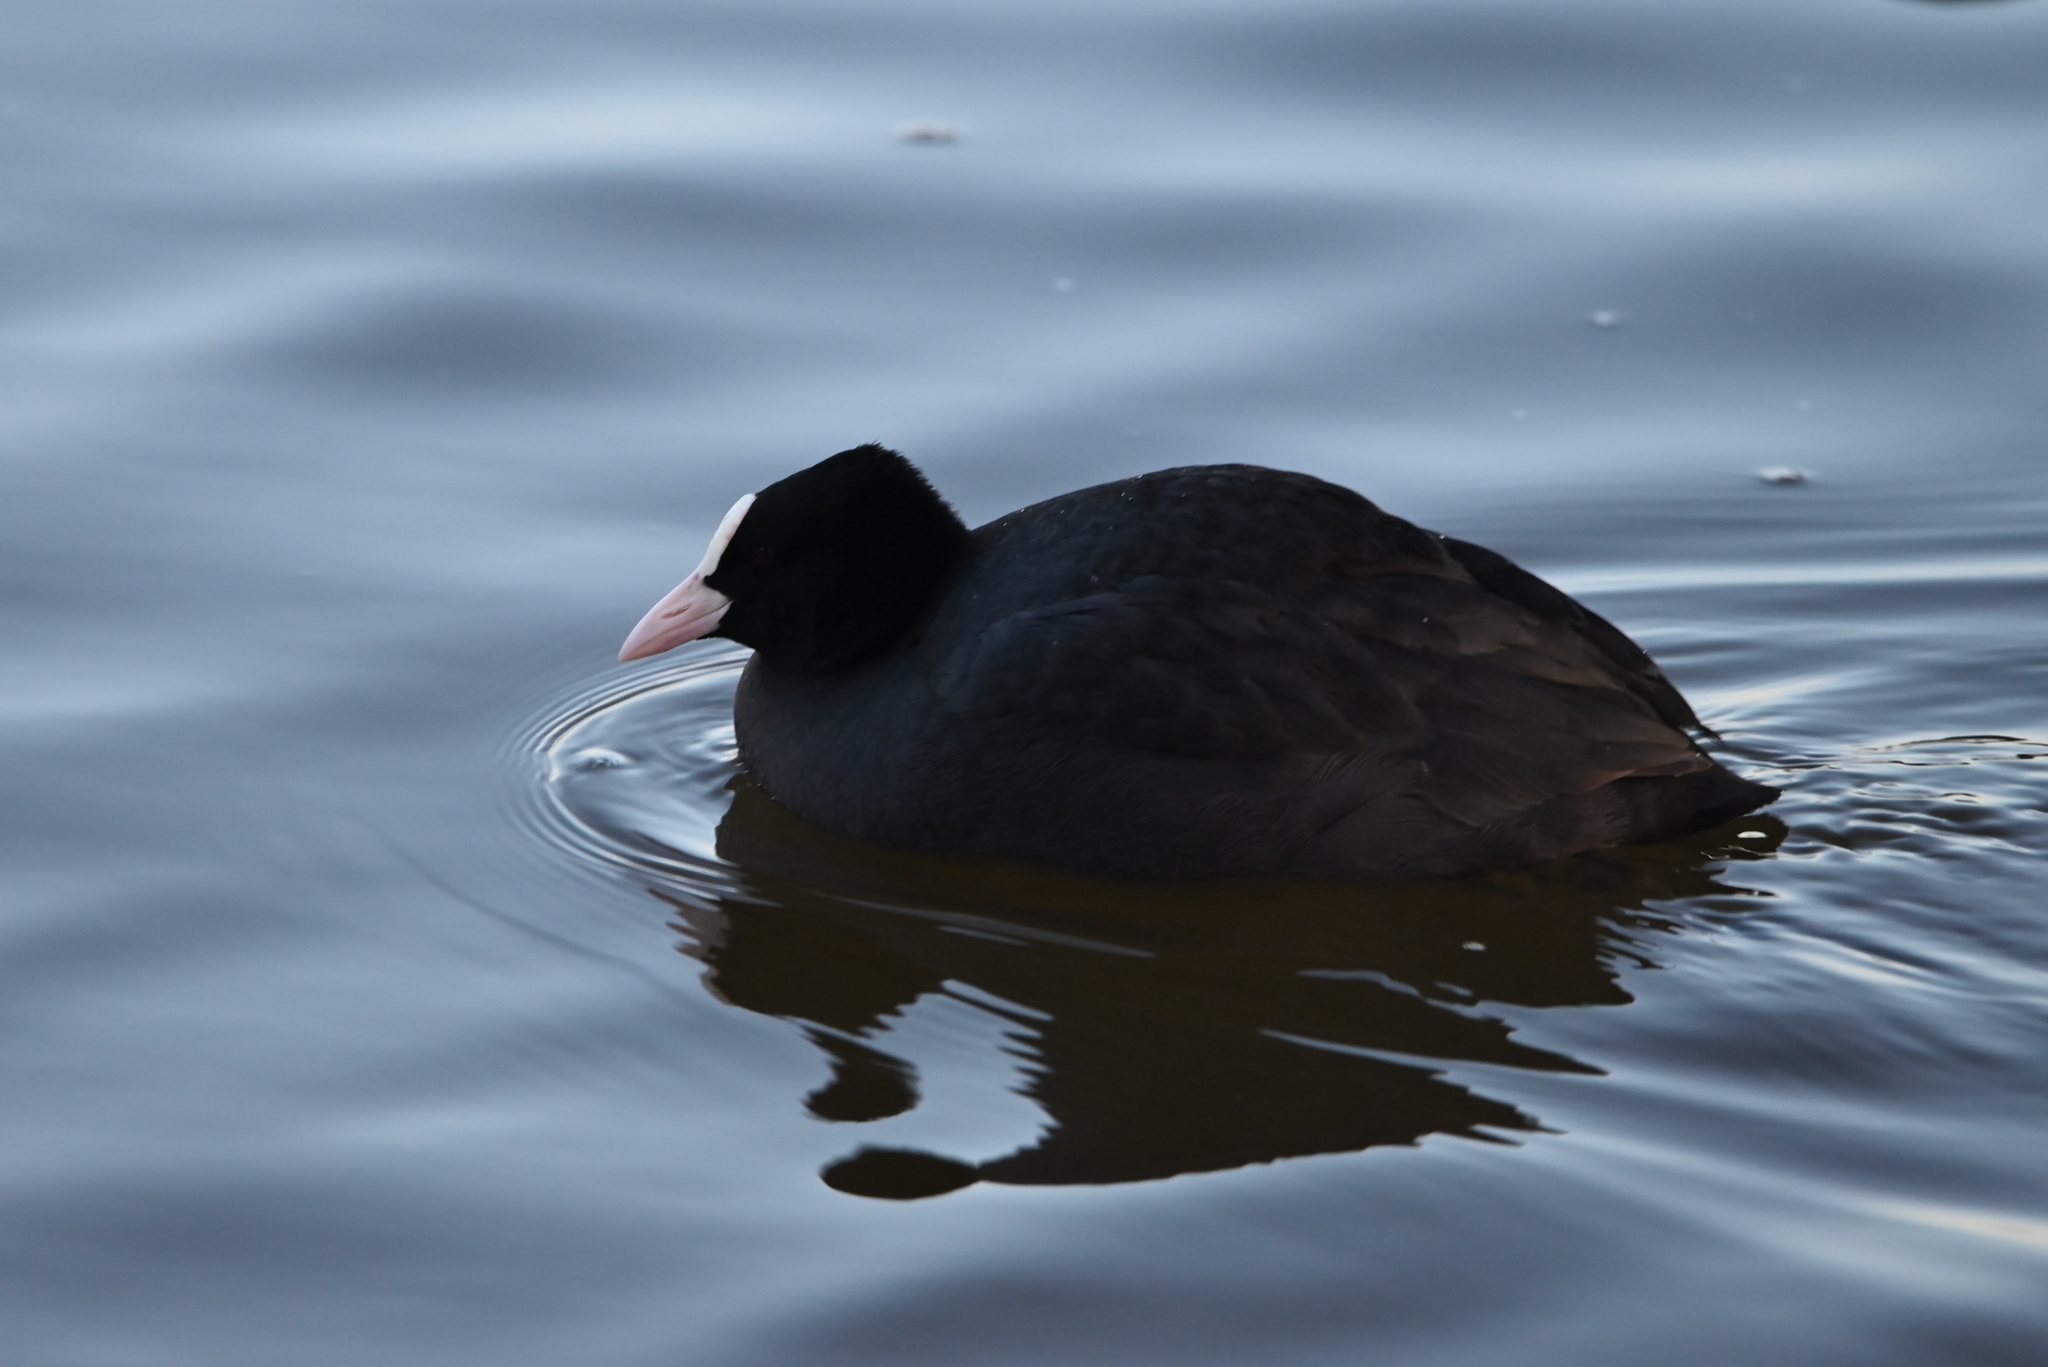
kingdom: Animalia
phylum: Chordata
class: Aves
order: Gruiformes
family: Rallidae
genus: Fulica
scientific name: Fulica atra
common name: Eurasian coot
